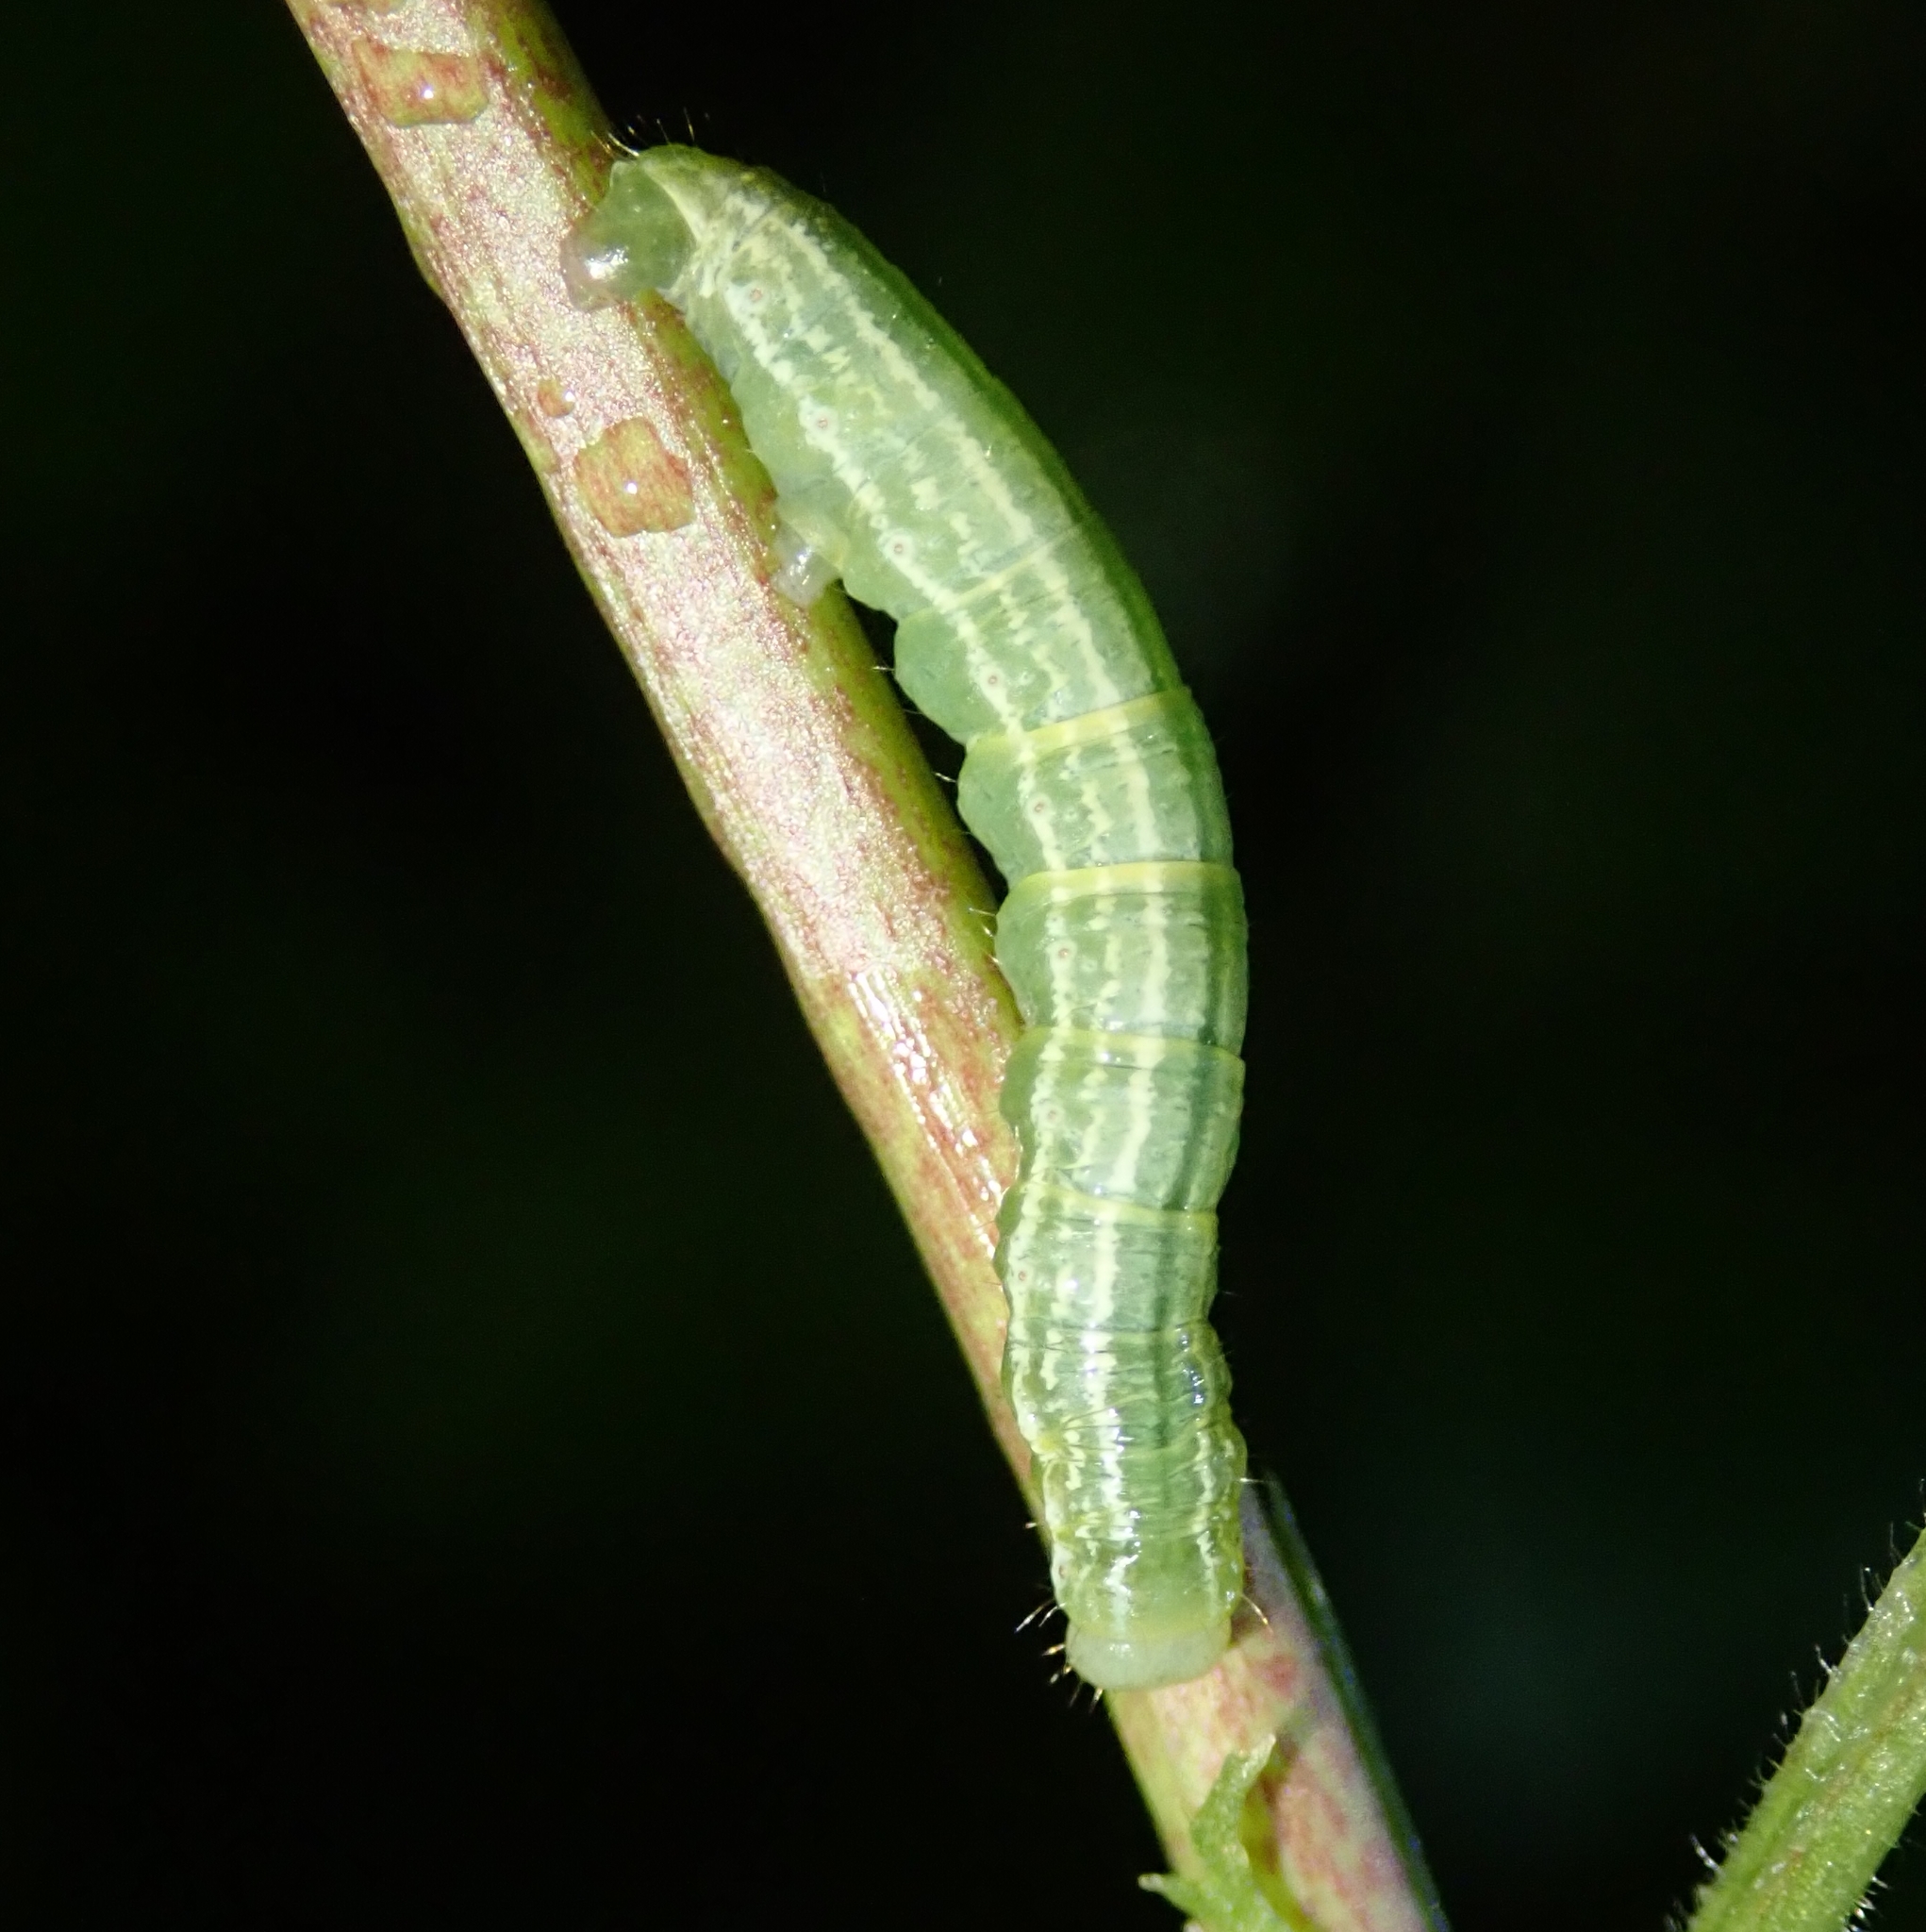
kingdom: Animalia
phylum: Arthropoda
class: Insecta
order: Lepidoptera
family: Geometridae
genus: Operophtera
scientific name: Operophtera brumata
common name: Winter moth
